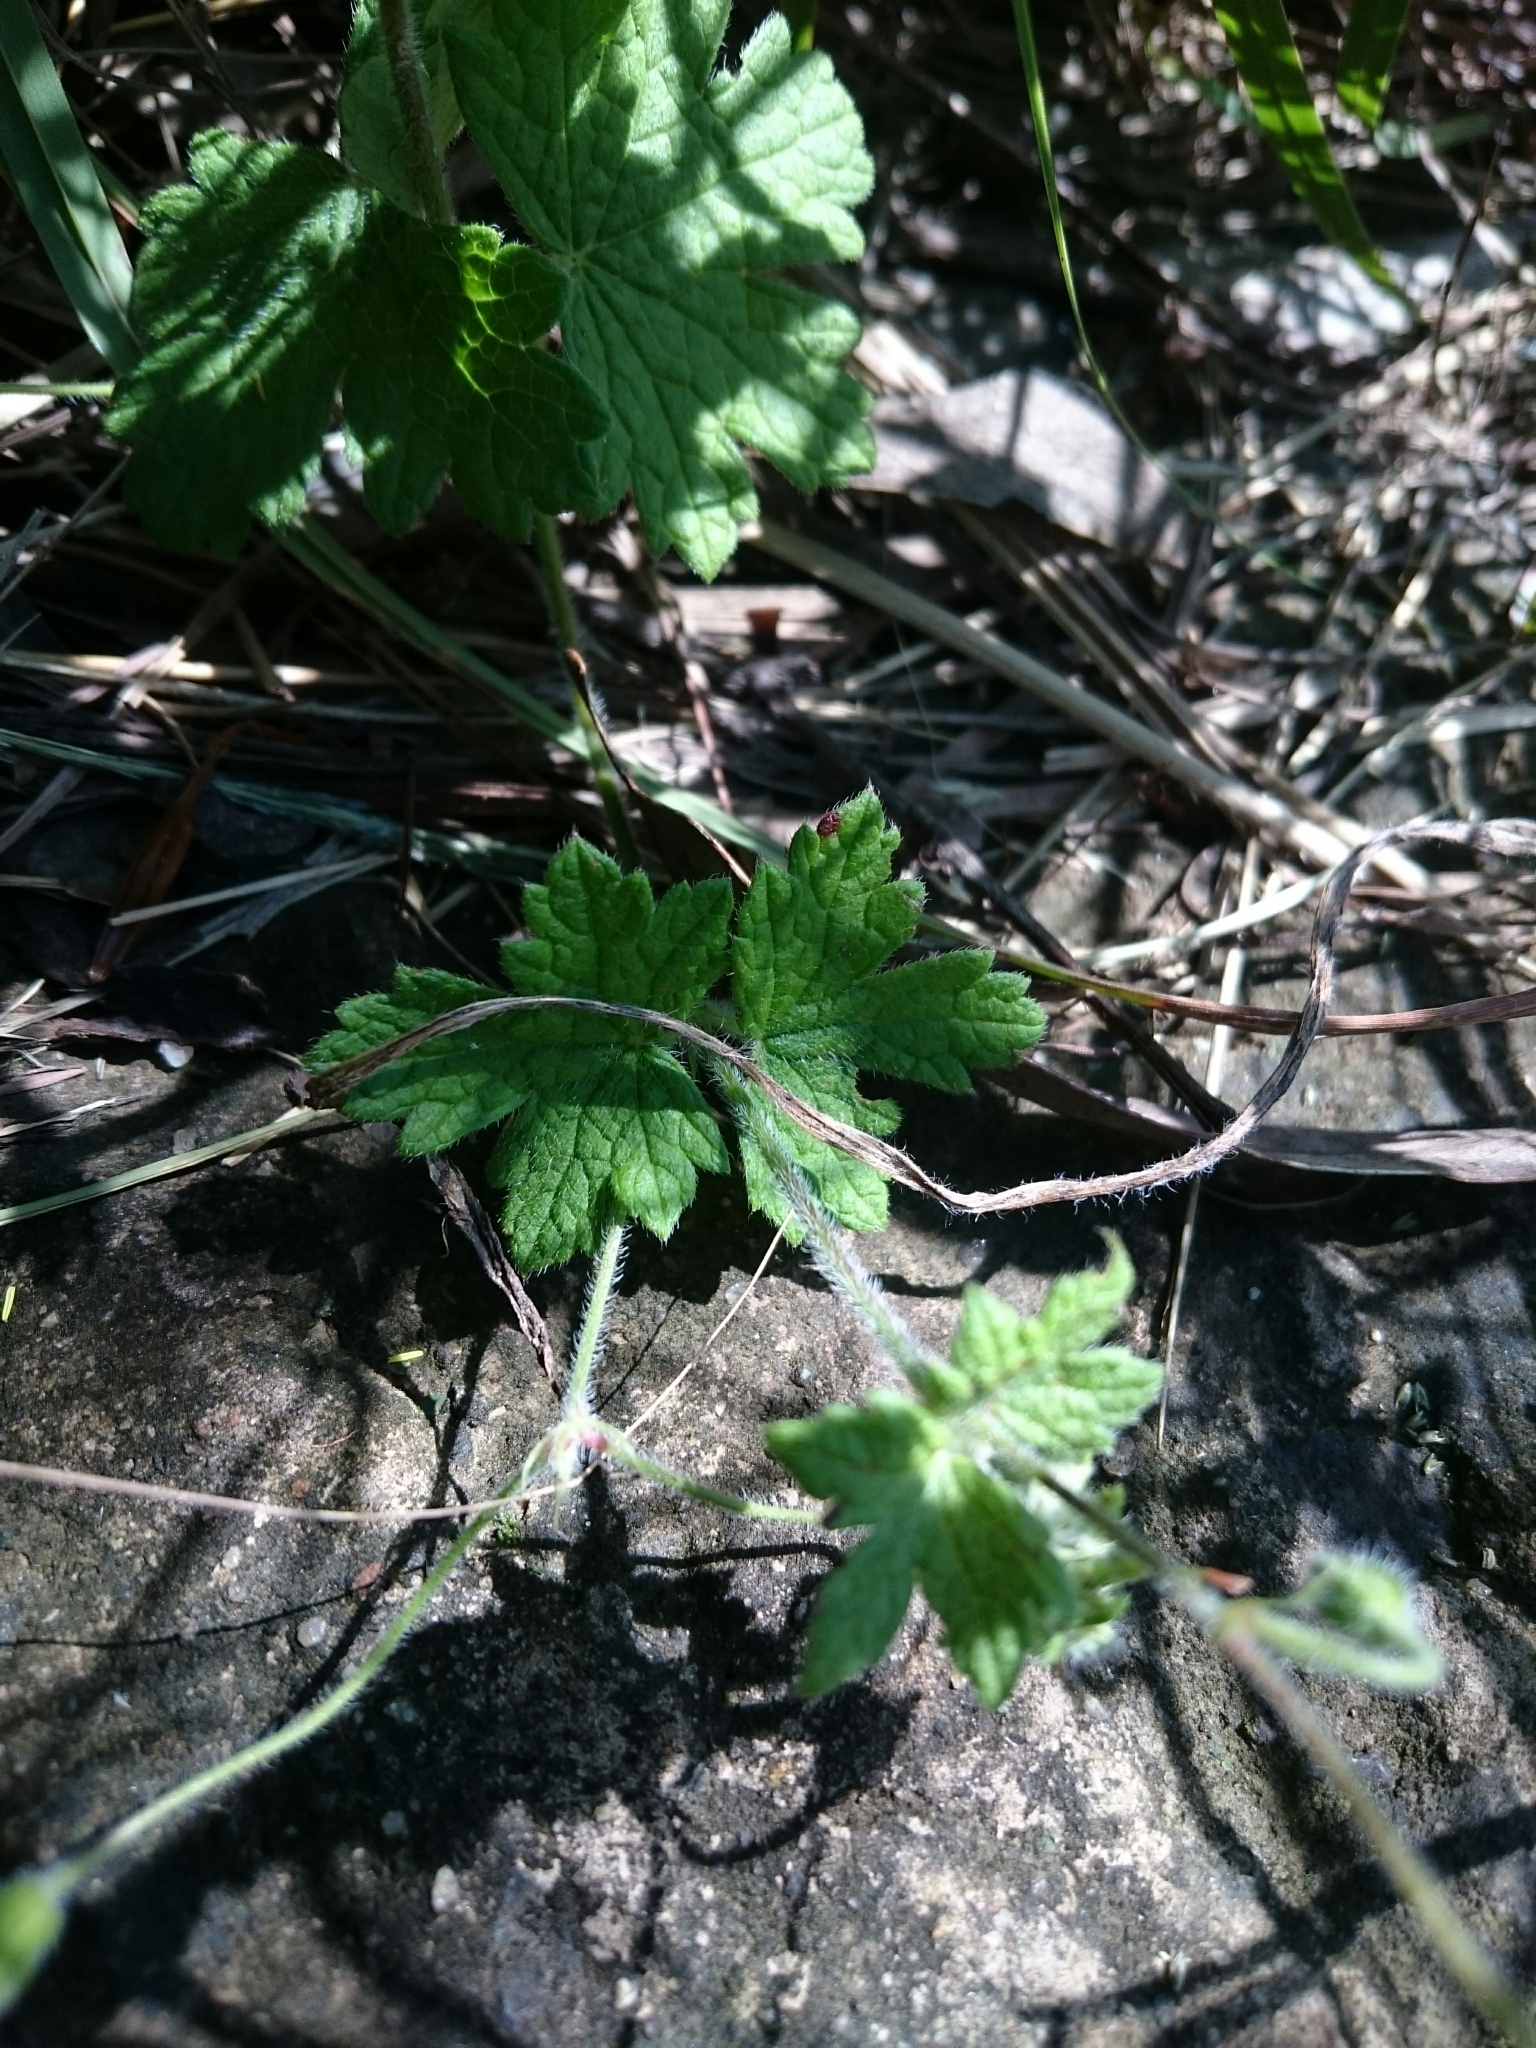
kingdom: Plantae
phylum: Tracheophyta
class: Magnoliopsida
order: Geraniales
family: Geraniaceae
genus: Geranium
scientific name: Geranium schlechteri
